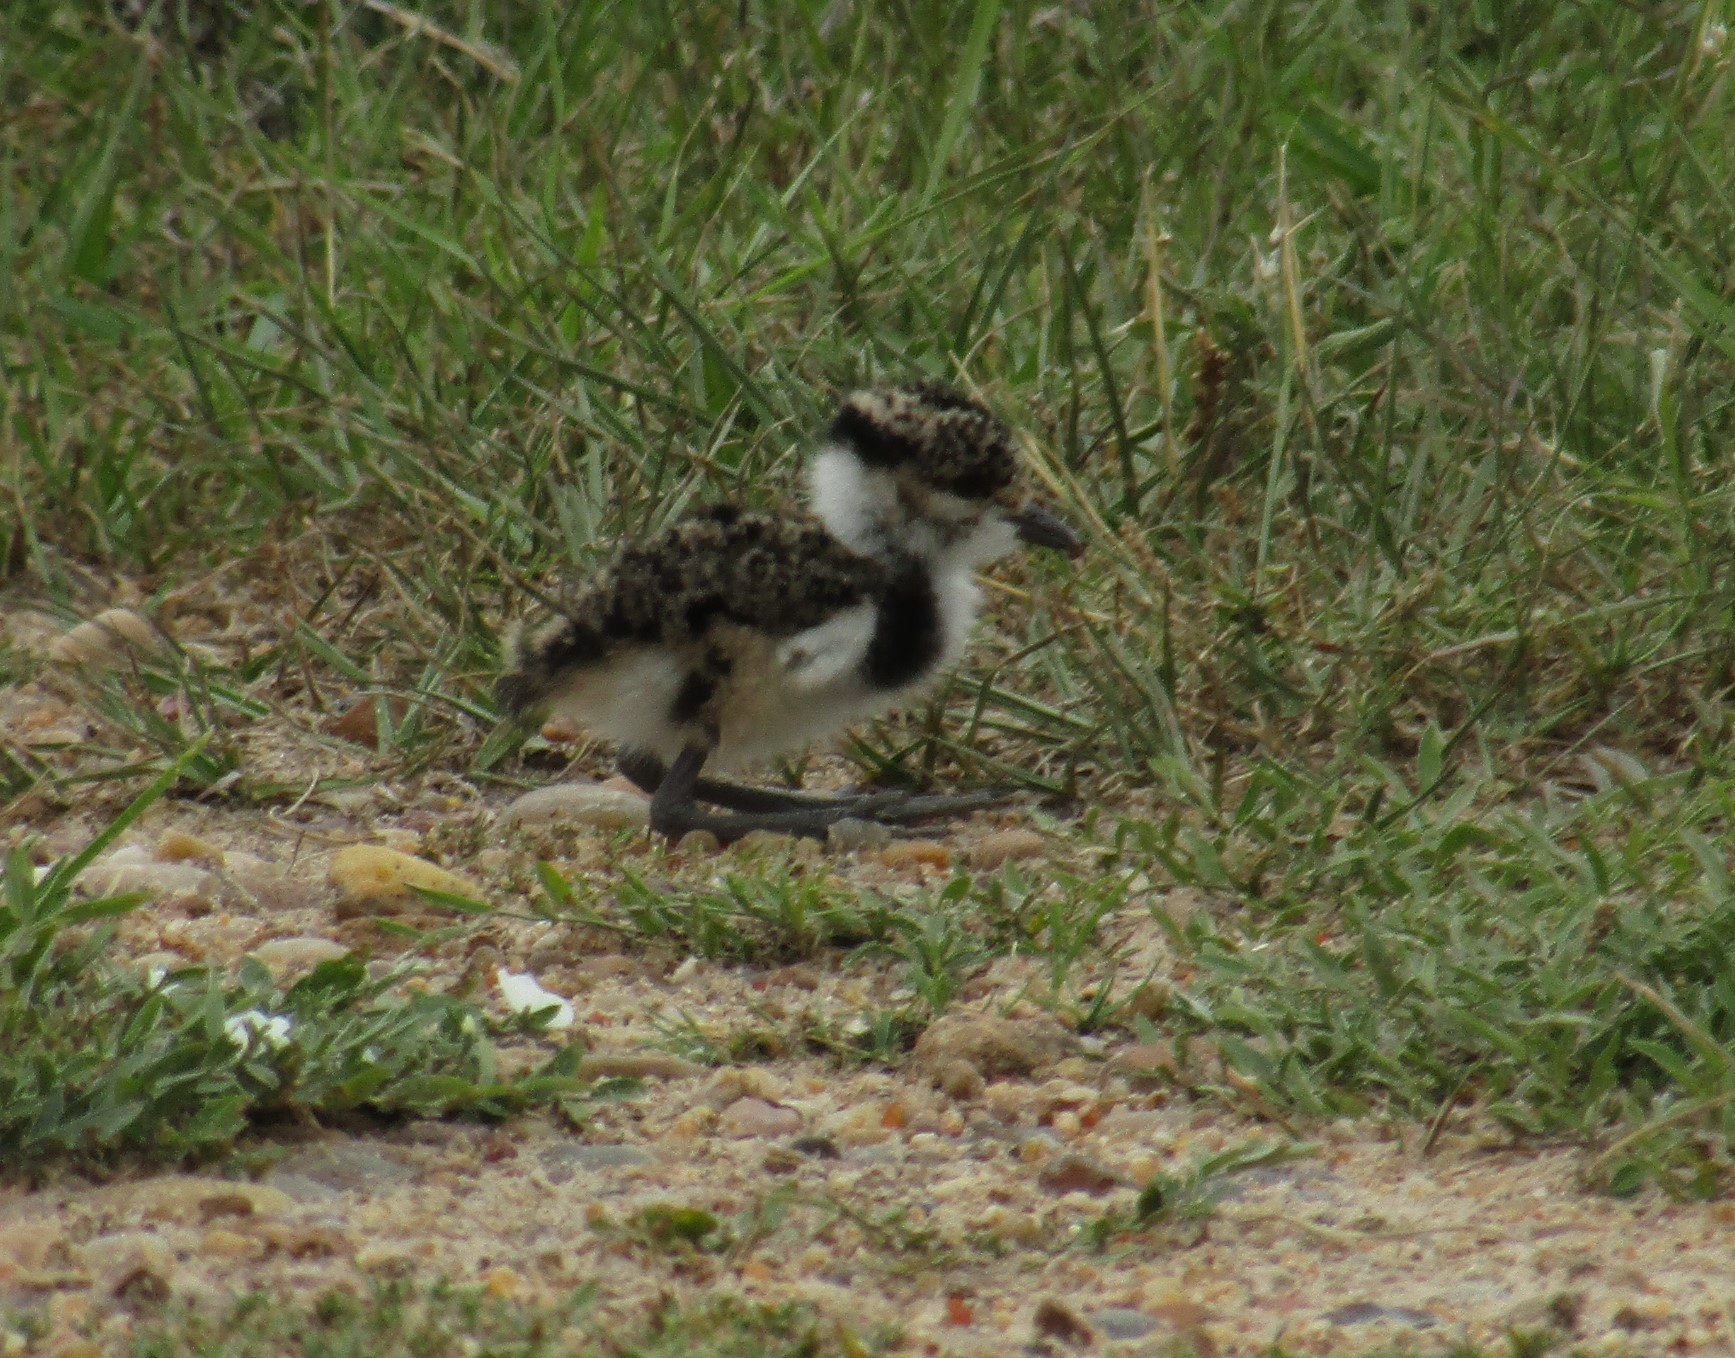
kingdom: Animalia
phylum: Chordata
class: Aves
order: Charadriiformes
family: Charadriidae
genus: Vanellus
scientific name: Vanellus chilensis
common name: Southern lapwing
